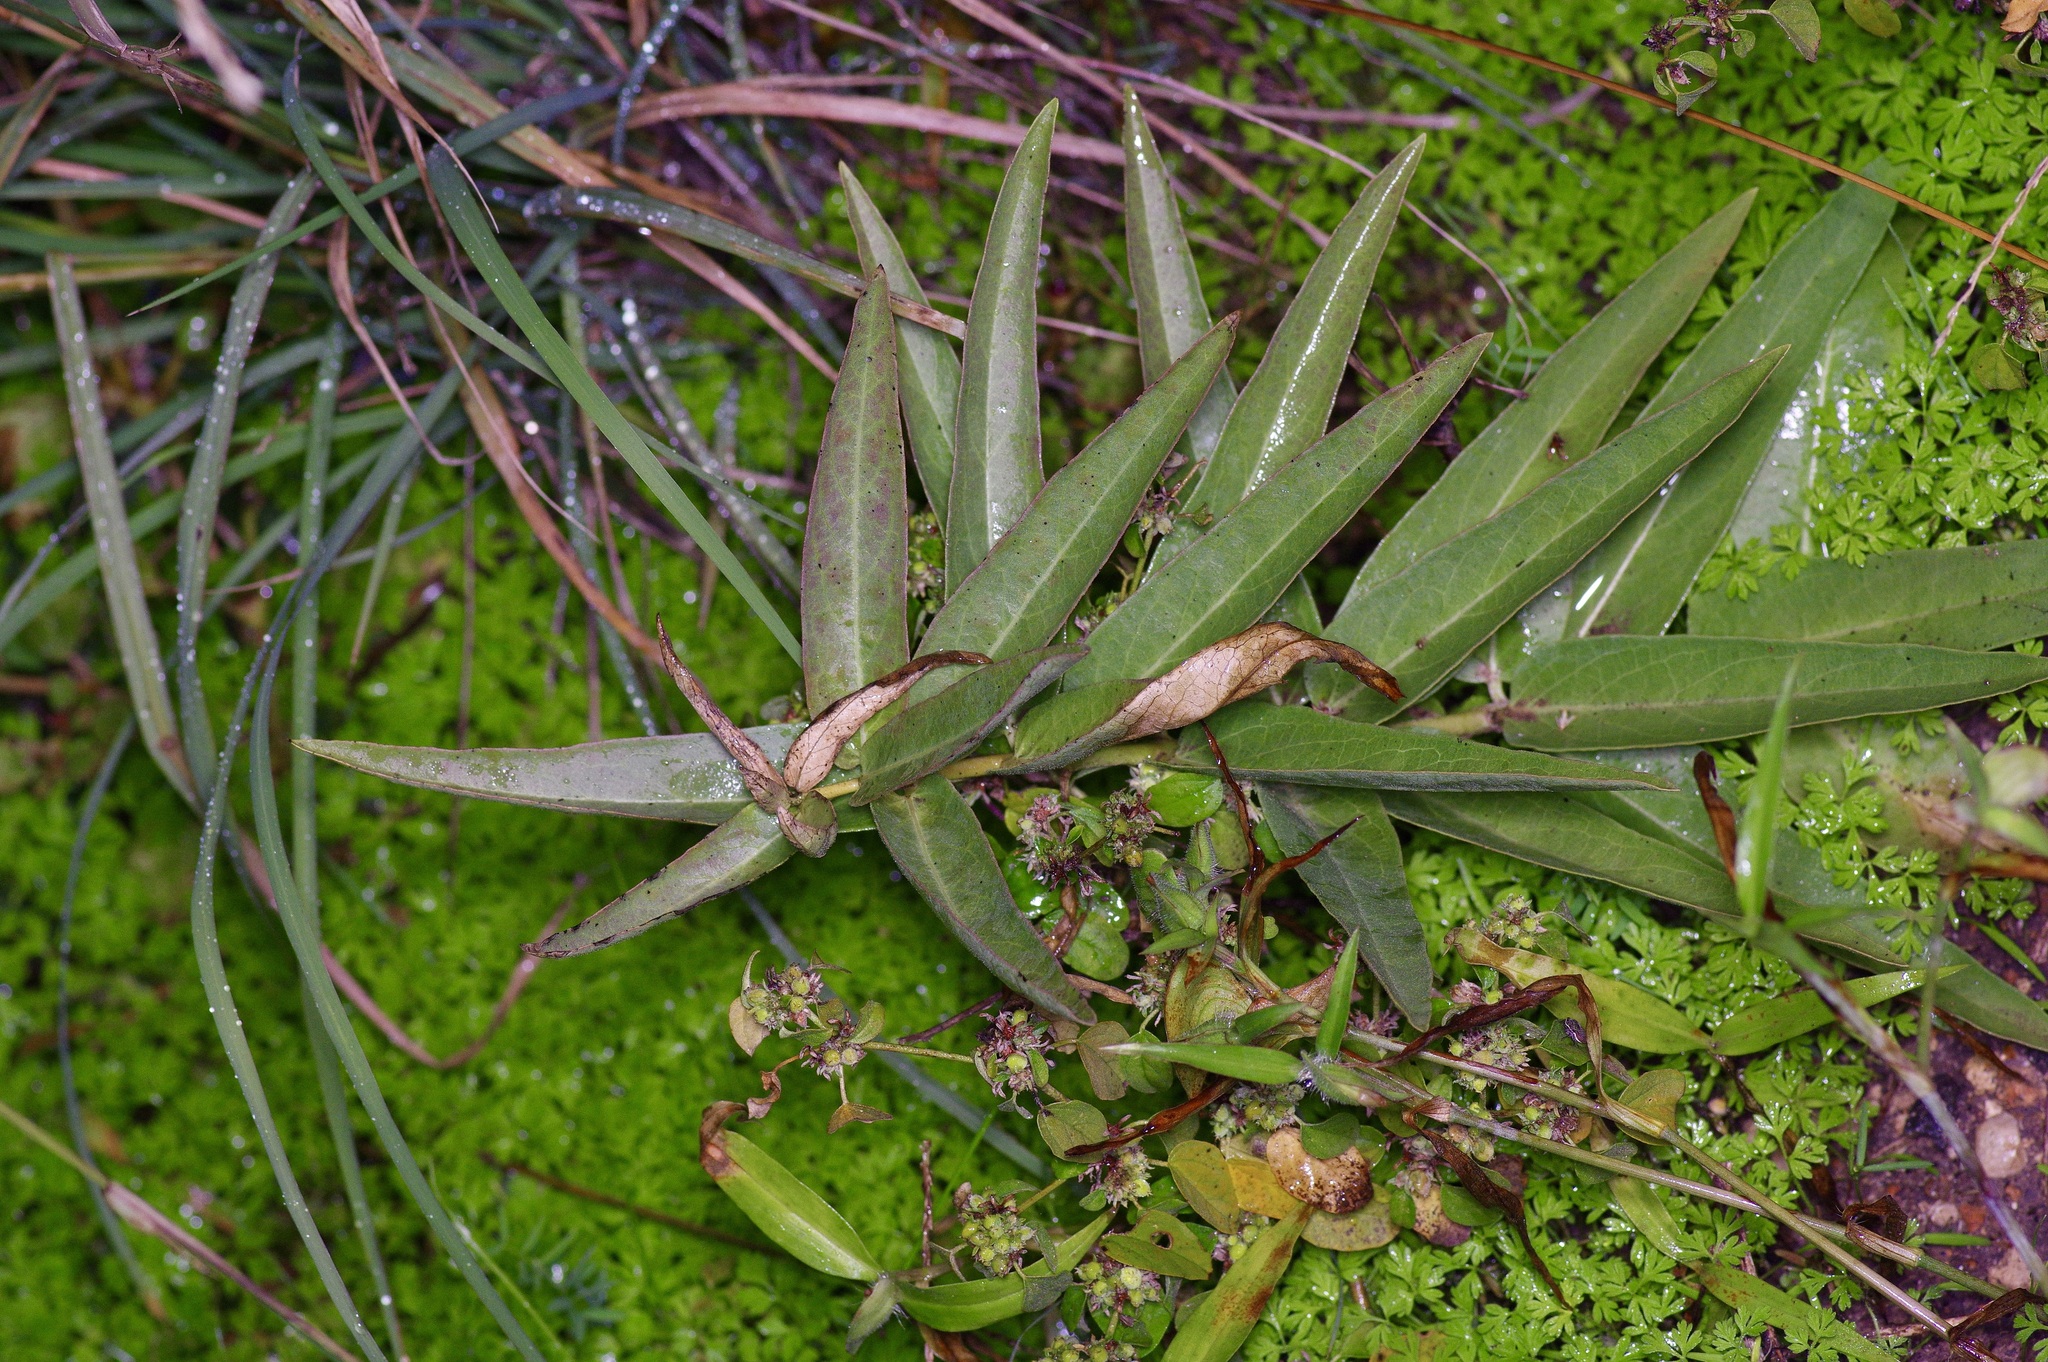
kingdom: Plantae
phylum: Tracheophyta
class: Magnoliopsida
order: Gentianales
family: Apocynaceae
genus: Asclepias
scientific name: Asclepias asperula
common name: Antelope horns
